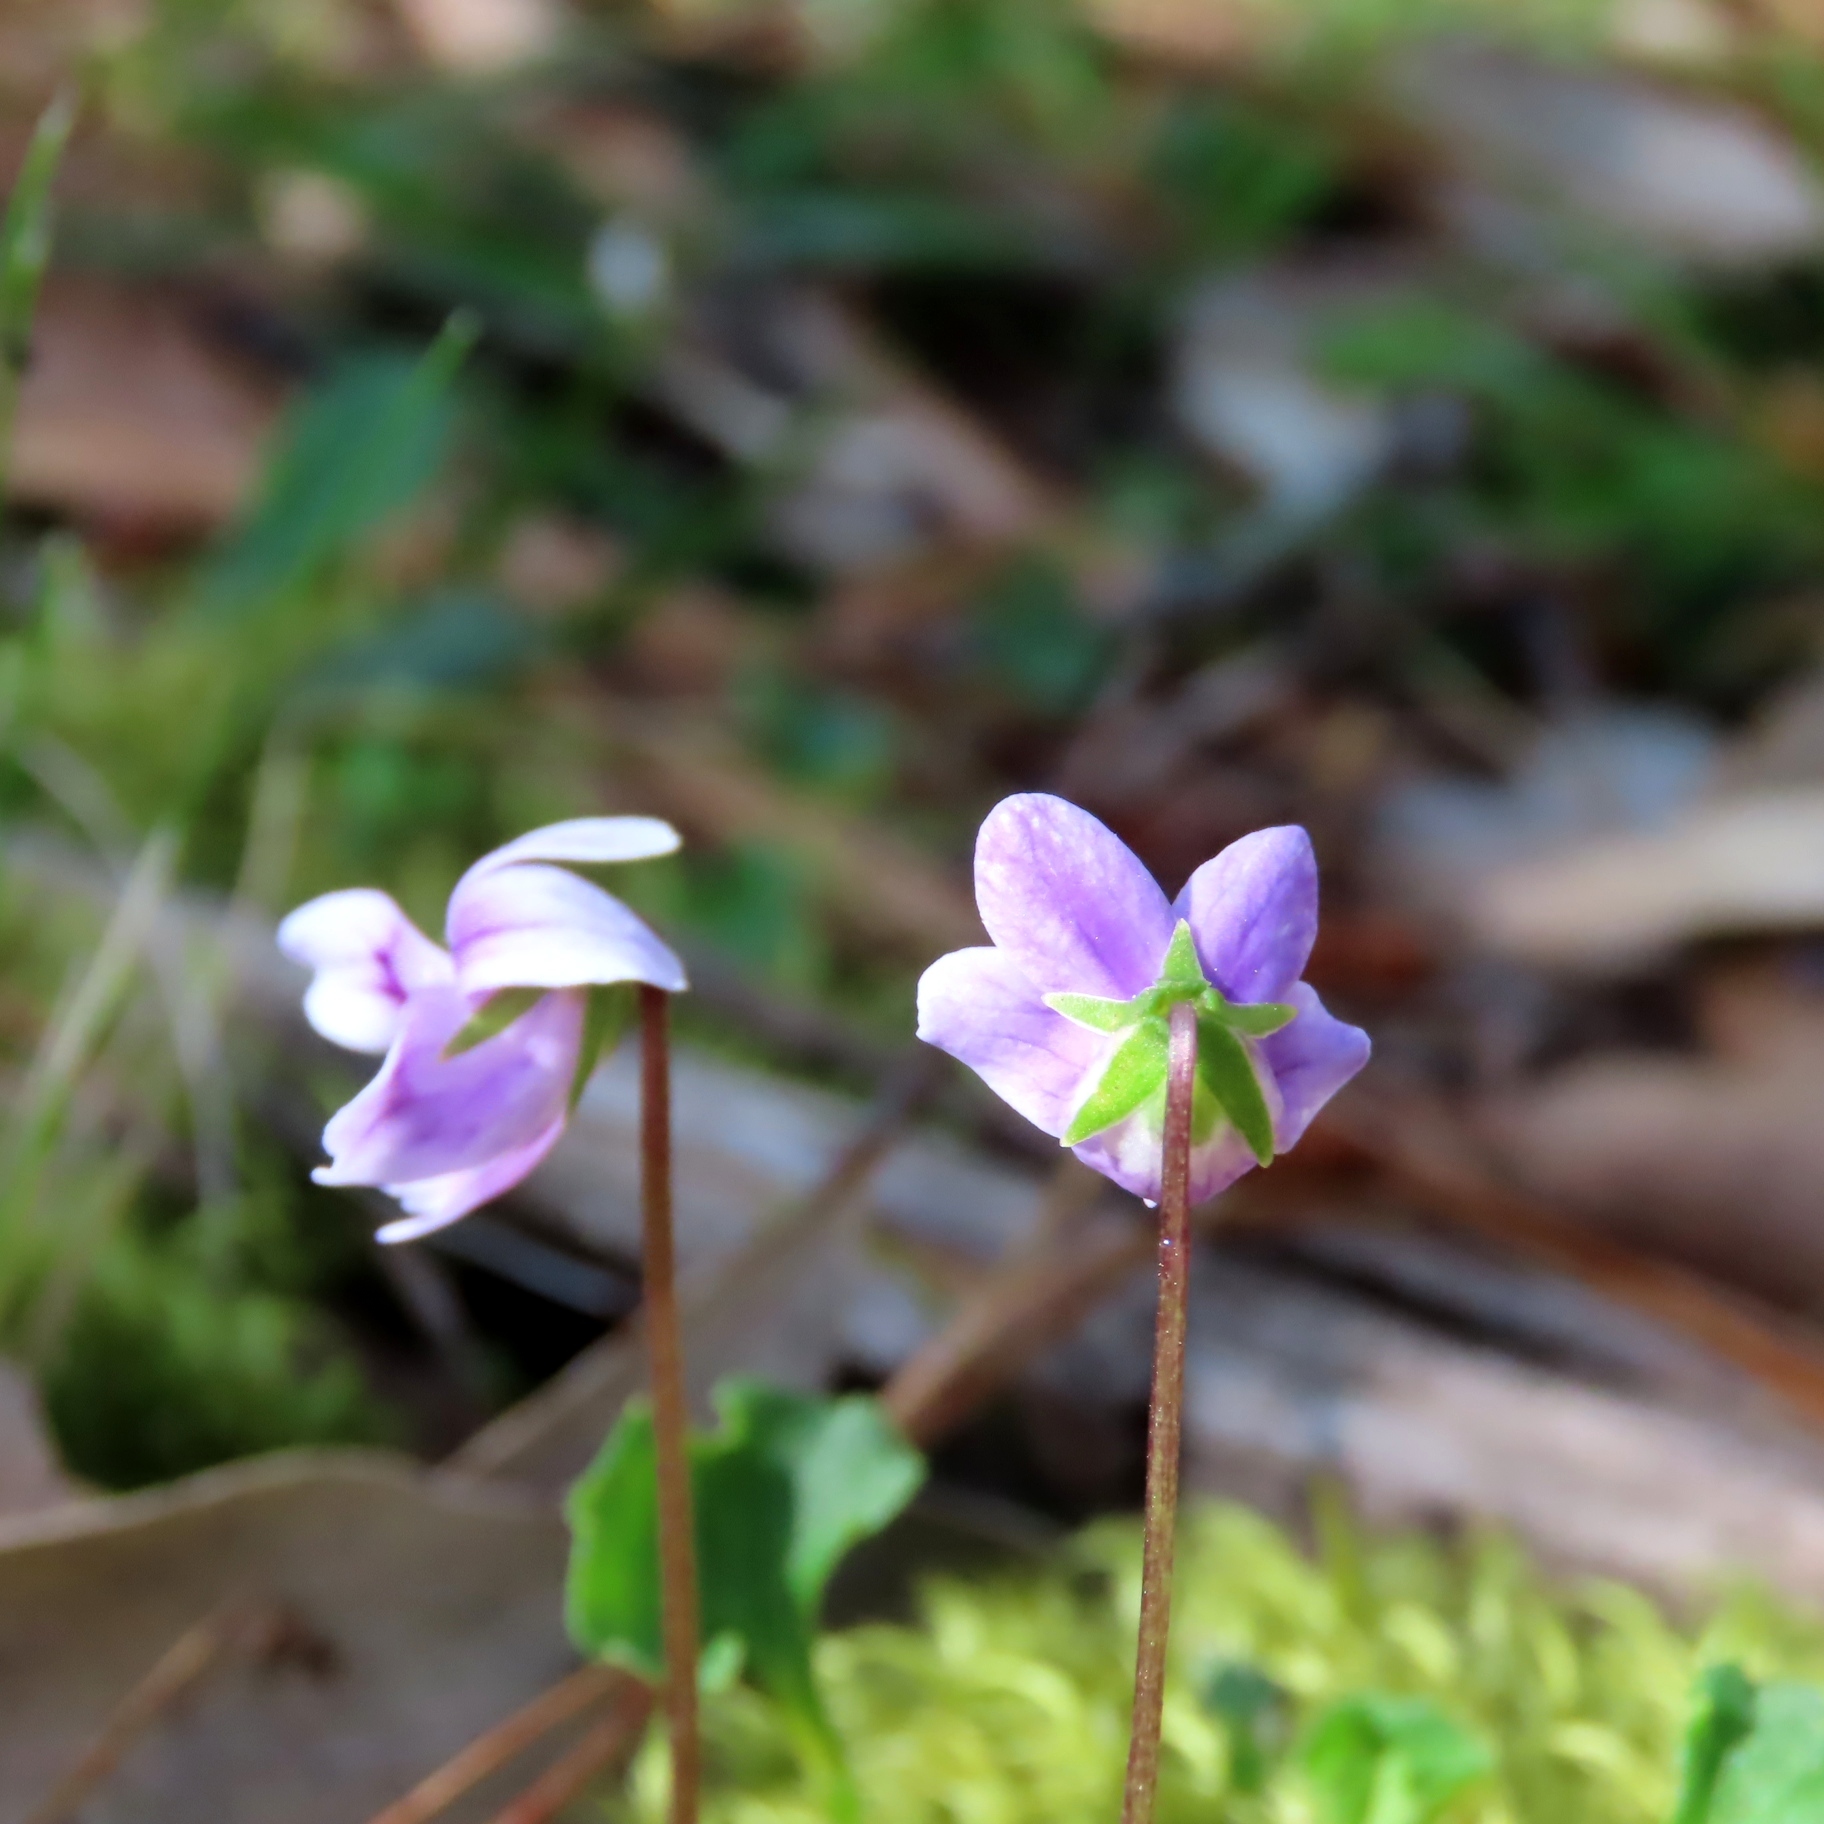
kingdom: Plantae
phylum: Tracheophyta
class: Magnoliopsida
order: Malpighiales
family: Violaceae
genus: Viola
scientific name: Viola hederacea
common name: Australian violet
